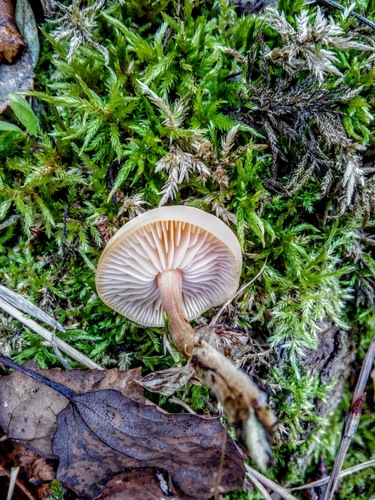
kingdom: Fungi
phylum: Basidiomycota
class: Agaricomycetes
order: Agaricales
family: Physalacriaceae
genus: Flammulina
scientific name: Flammulina
